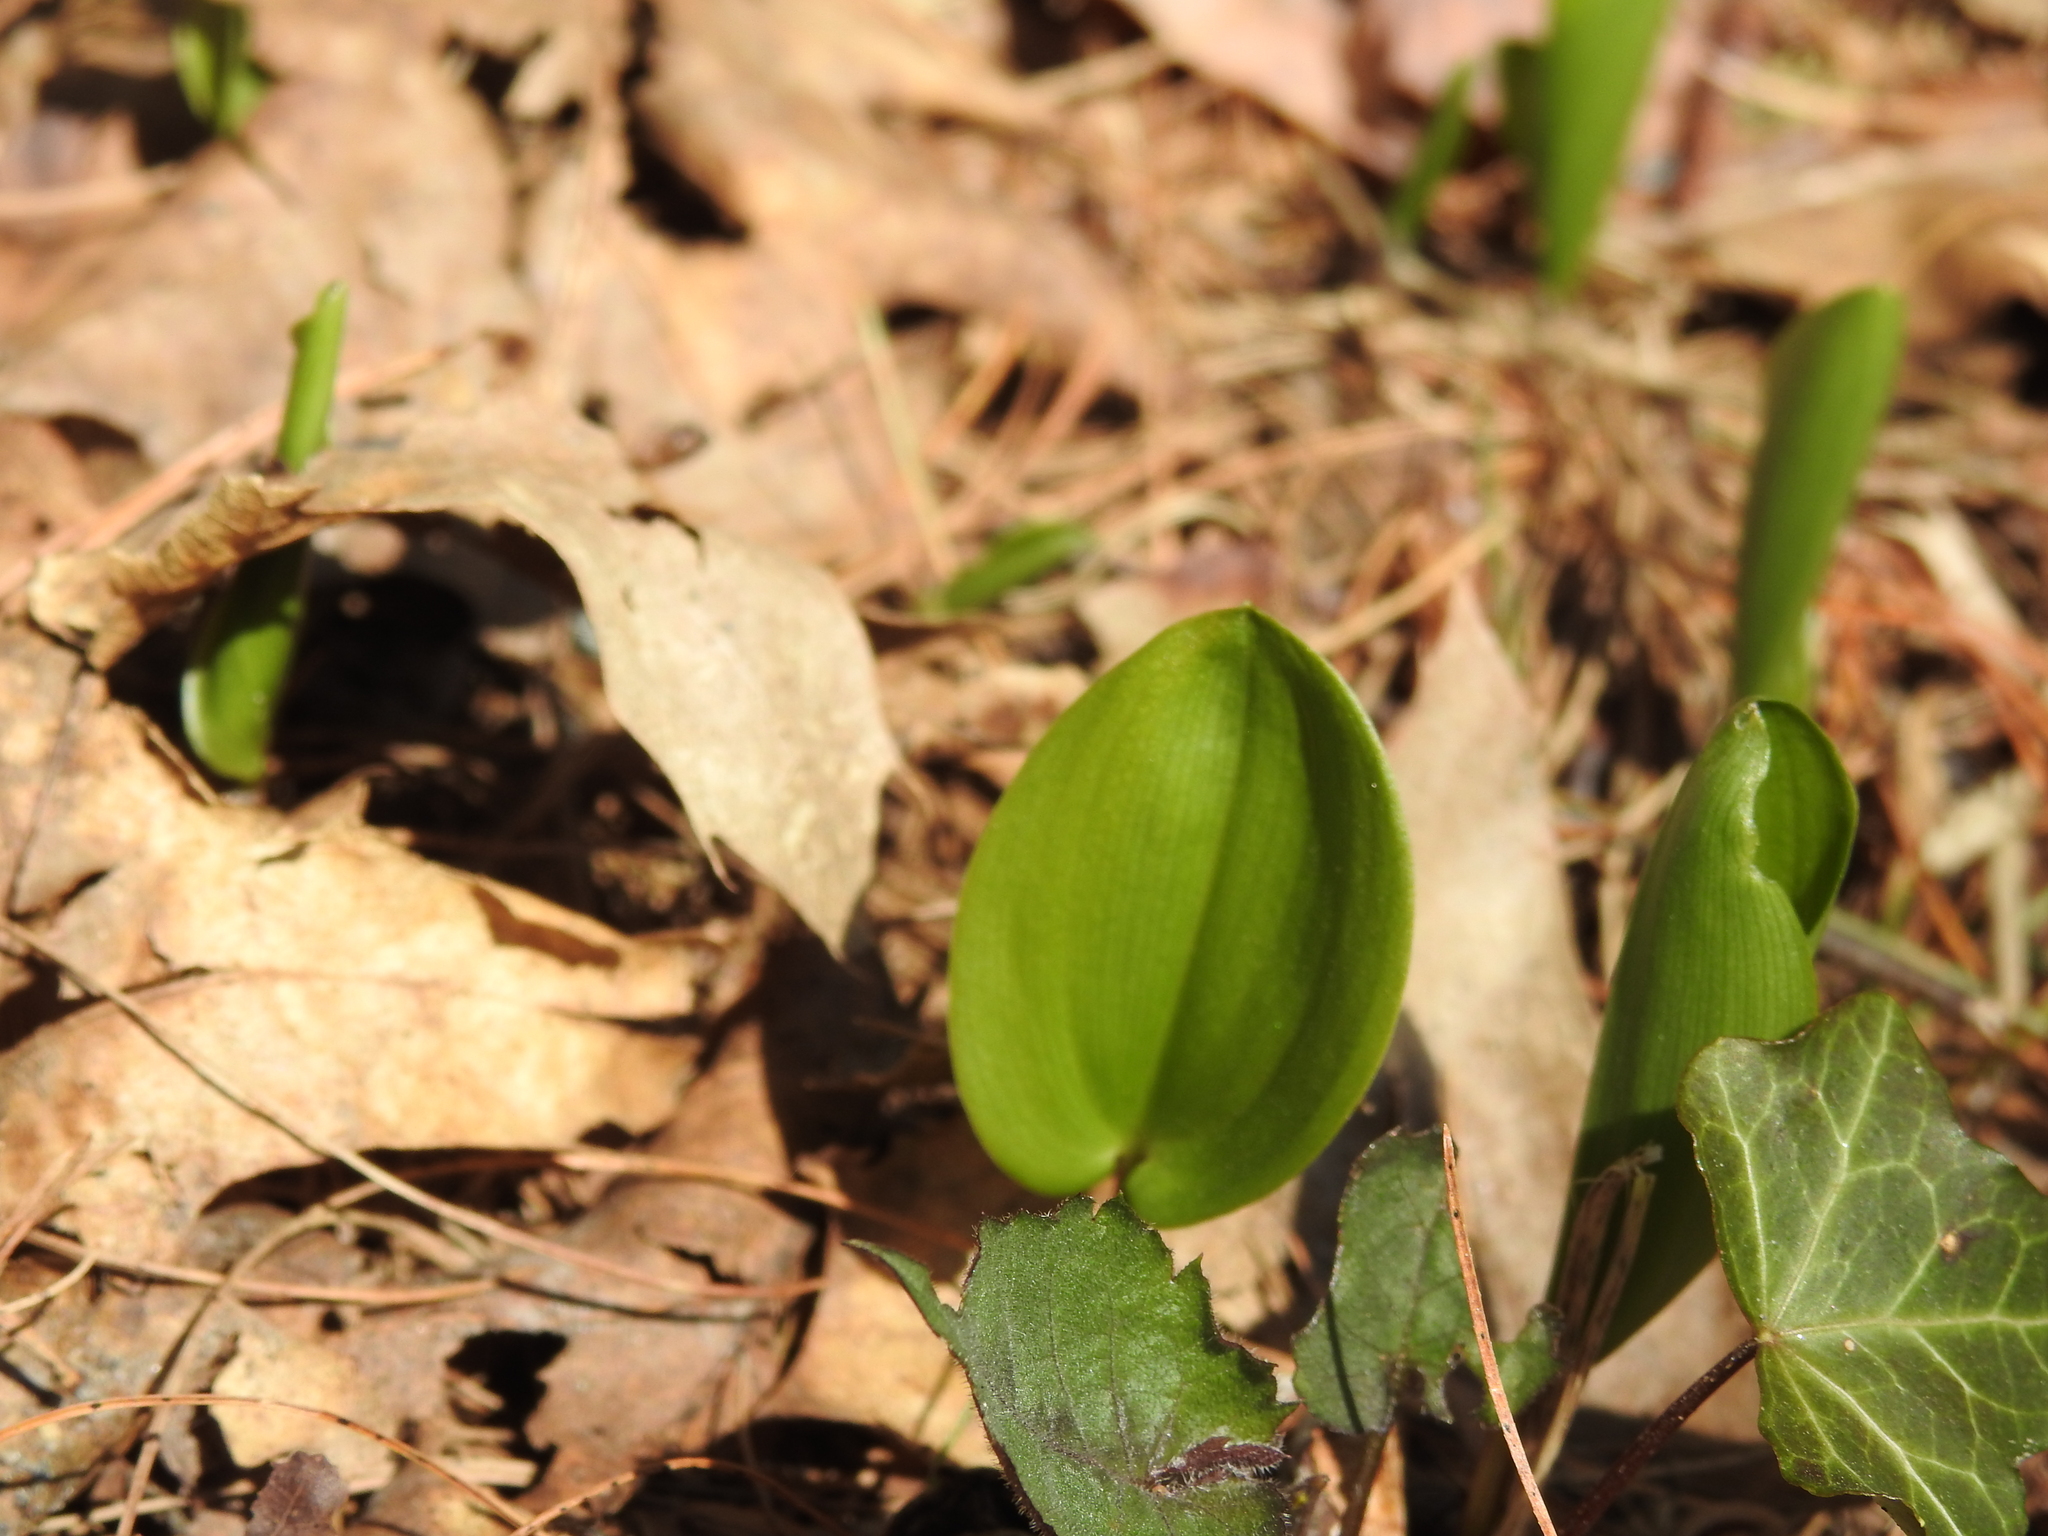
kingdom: Plantae
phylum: Tracheophyta
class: Liliopsida
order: Asparagales
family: Asparagaceae
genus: Maianthemum
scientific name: Maianthemum canadense
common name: False lily-of-the-valley
